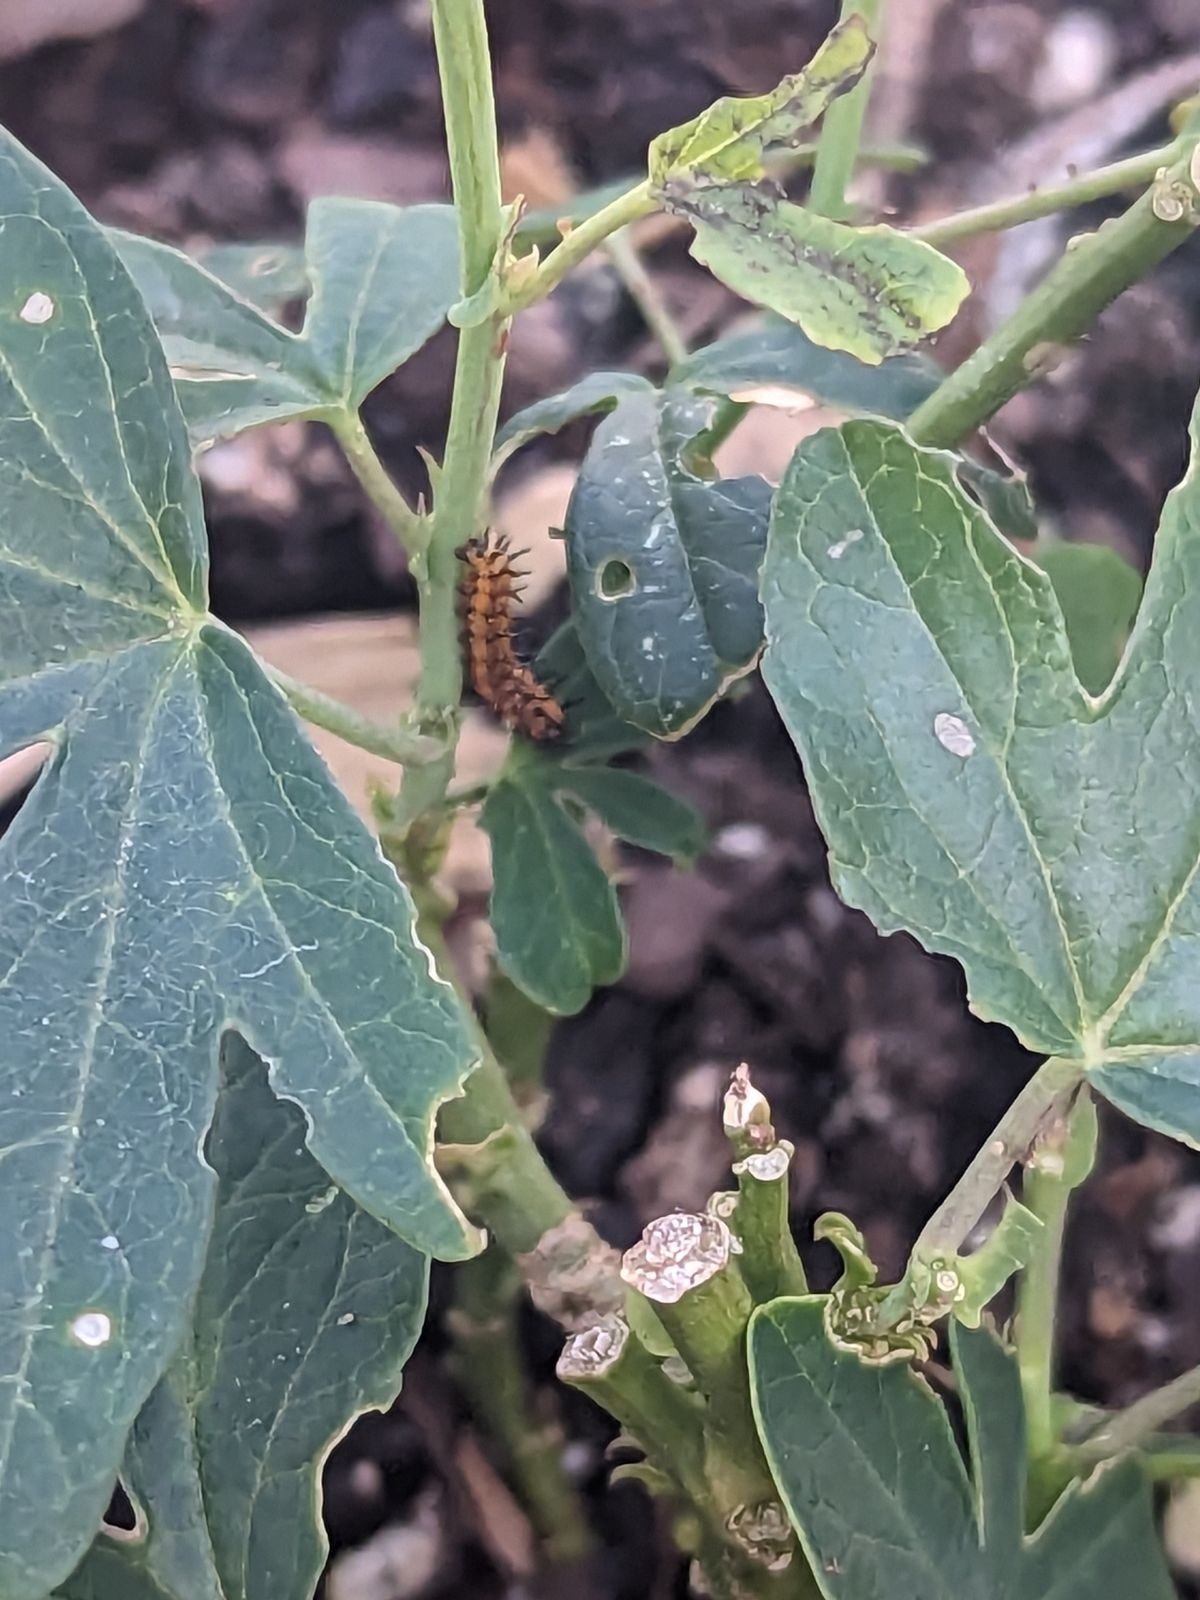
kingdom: Animalia
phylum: Arthropoda
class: Insecta
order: Lepidoptera
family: Nymphalidae
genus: Dione
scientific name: Dione vanillae
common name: Gulf fritillary
